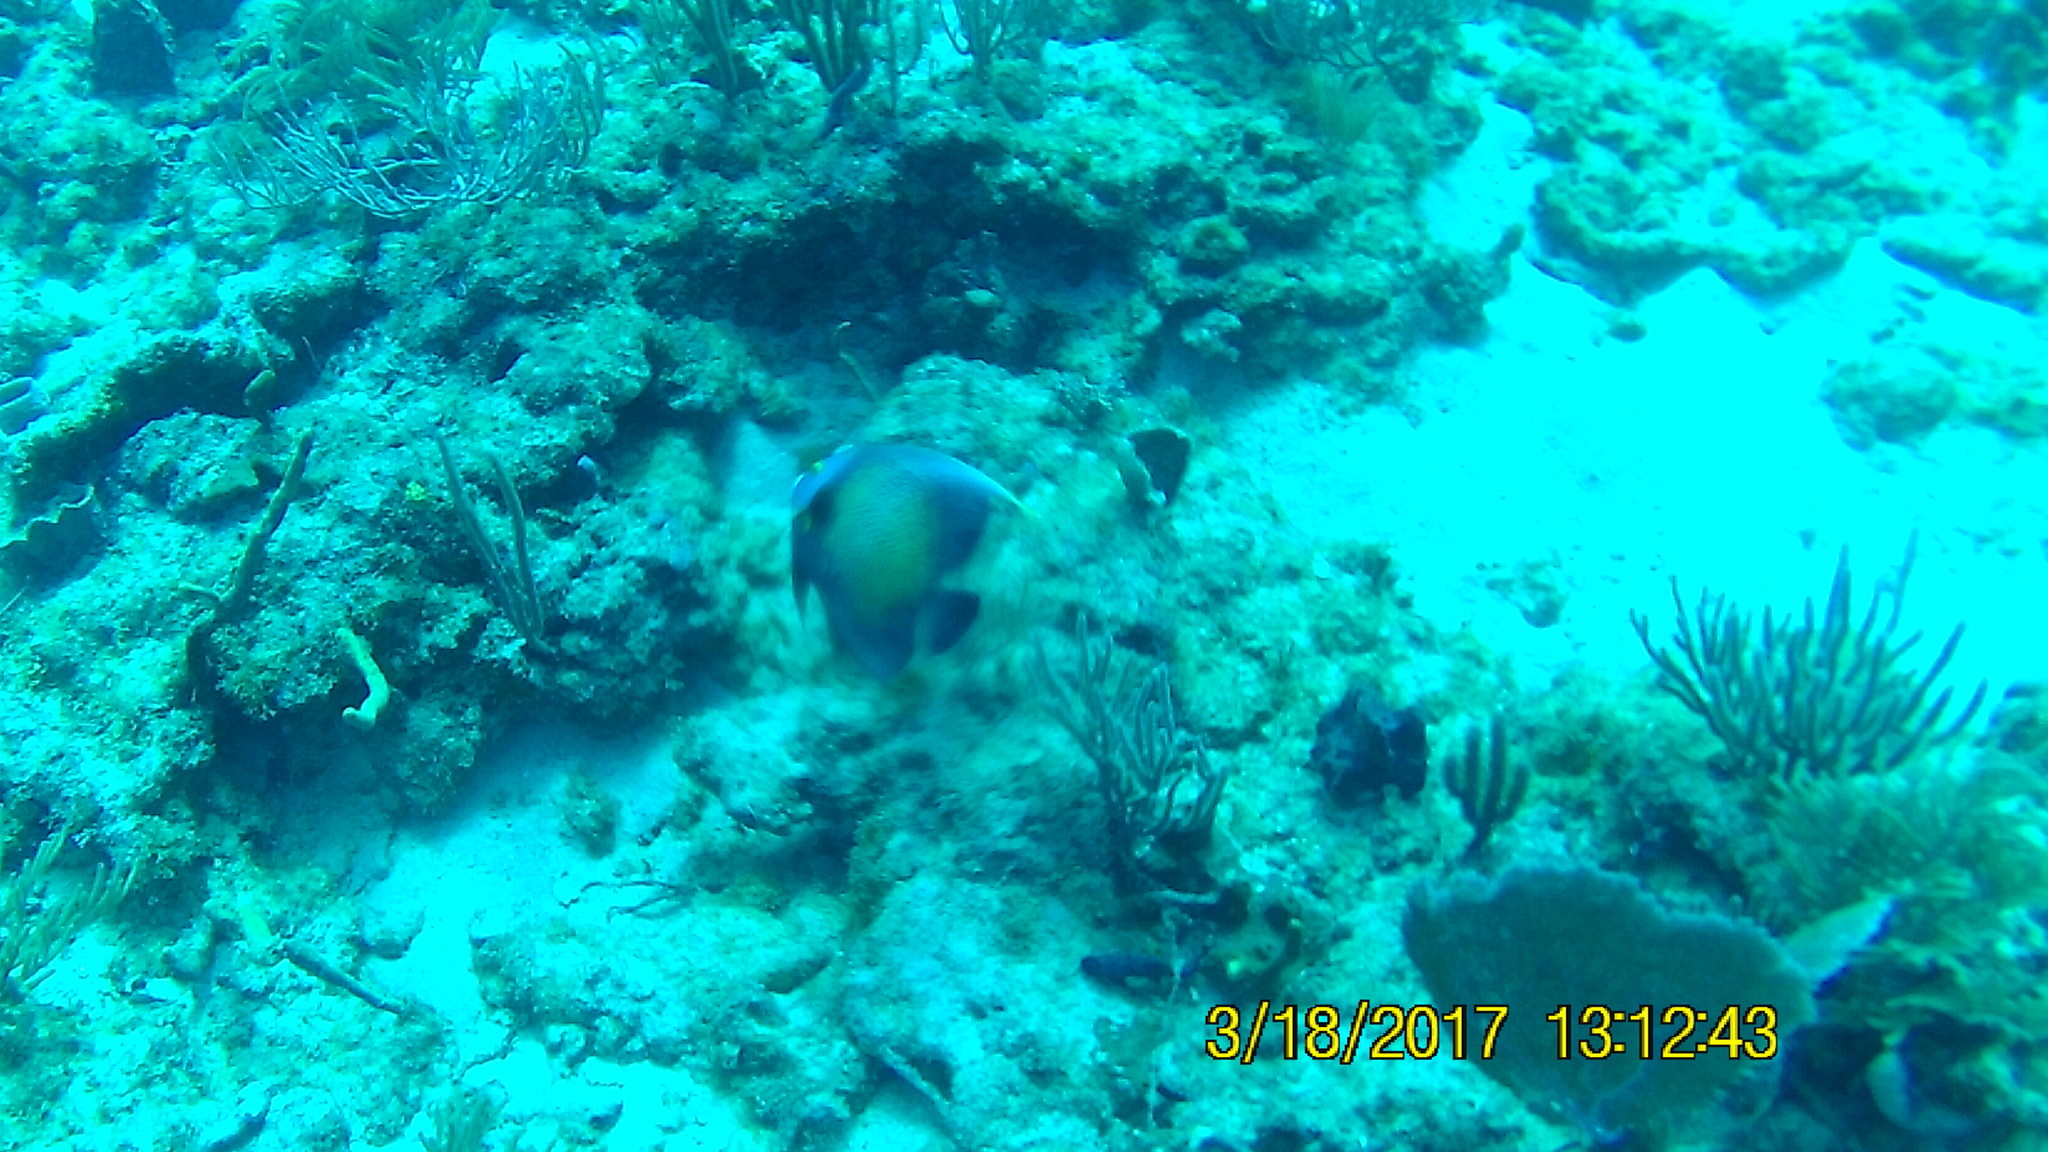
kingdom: Animalia
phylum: Chordata
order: Perciformes
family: Pomacanthidae
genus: Pomacanthus
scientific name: Pomacanthus paru
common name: French angelfish
